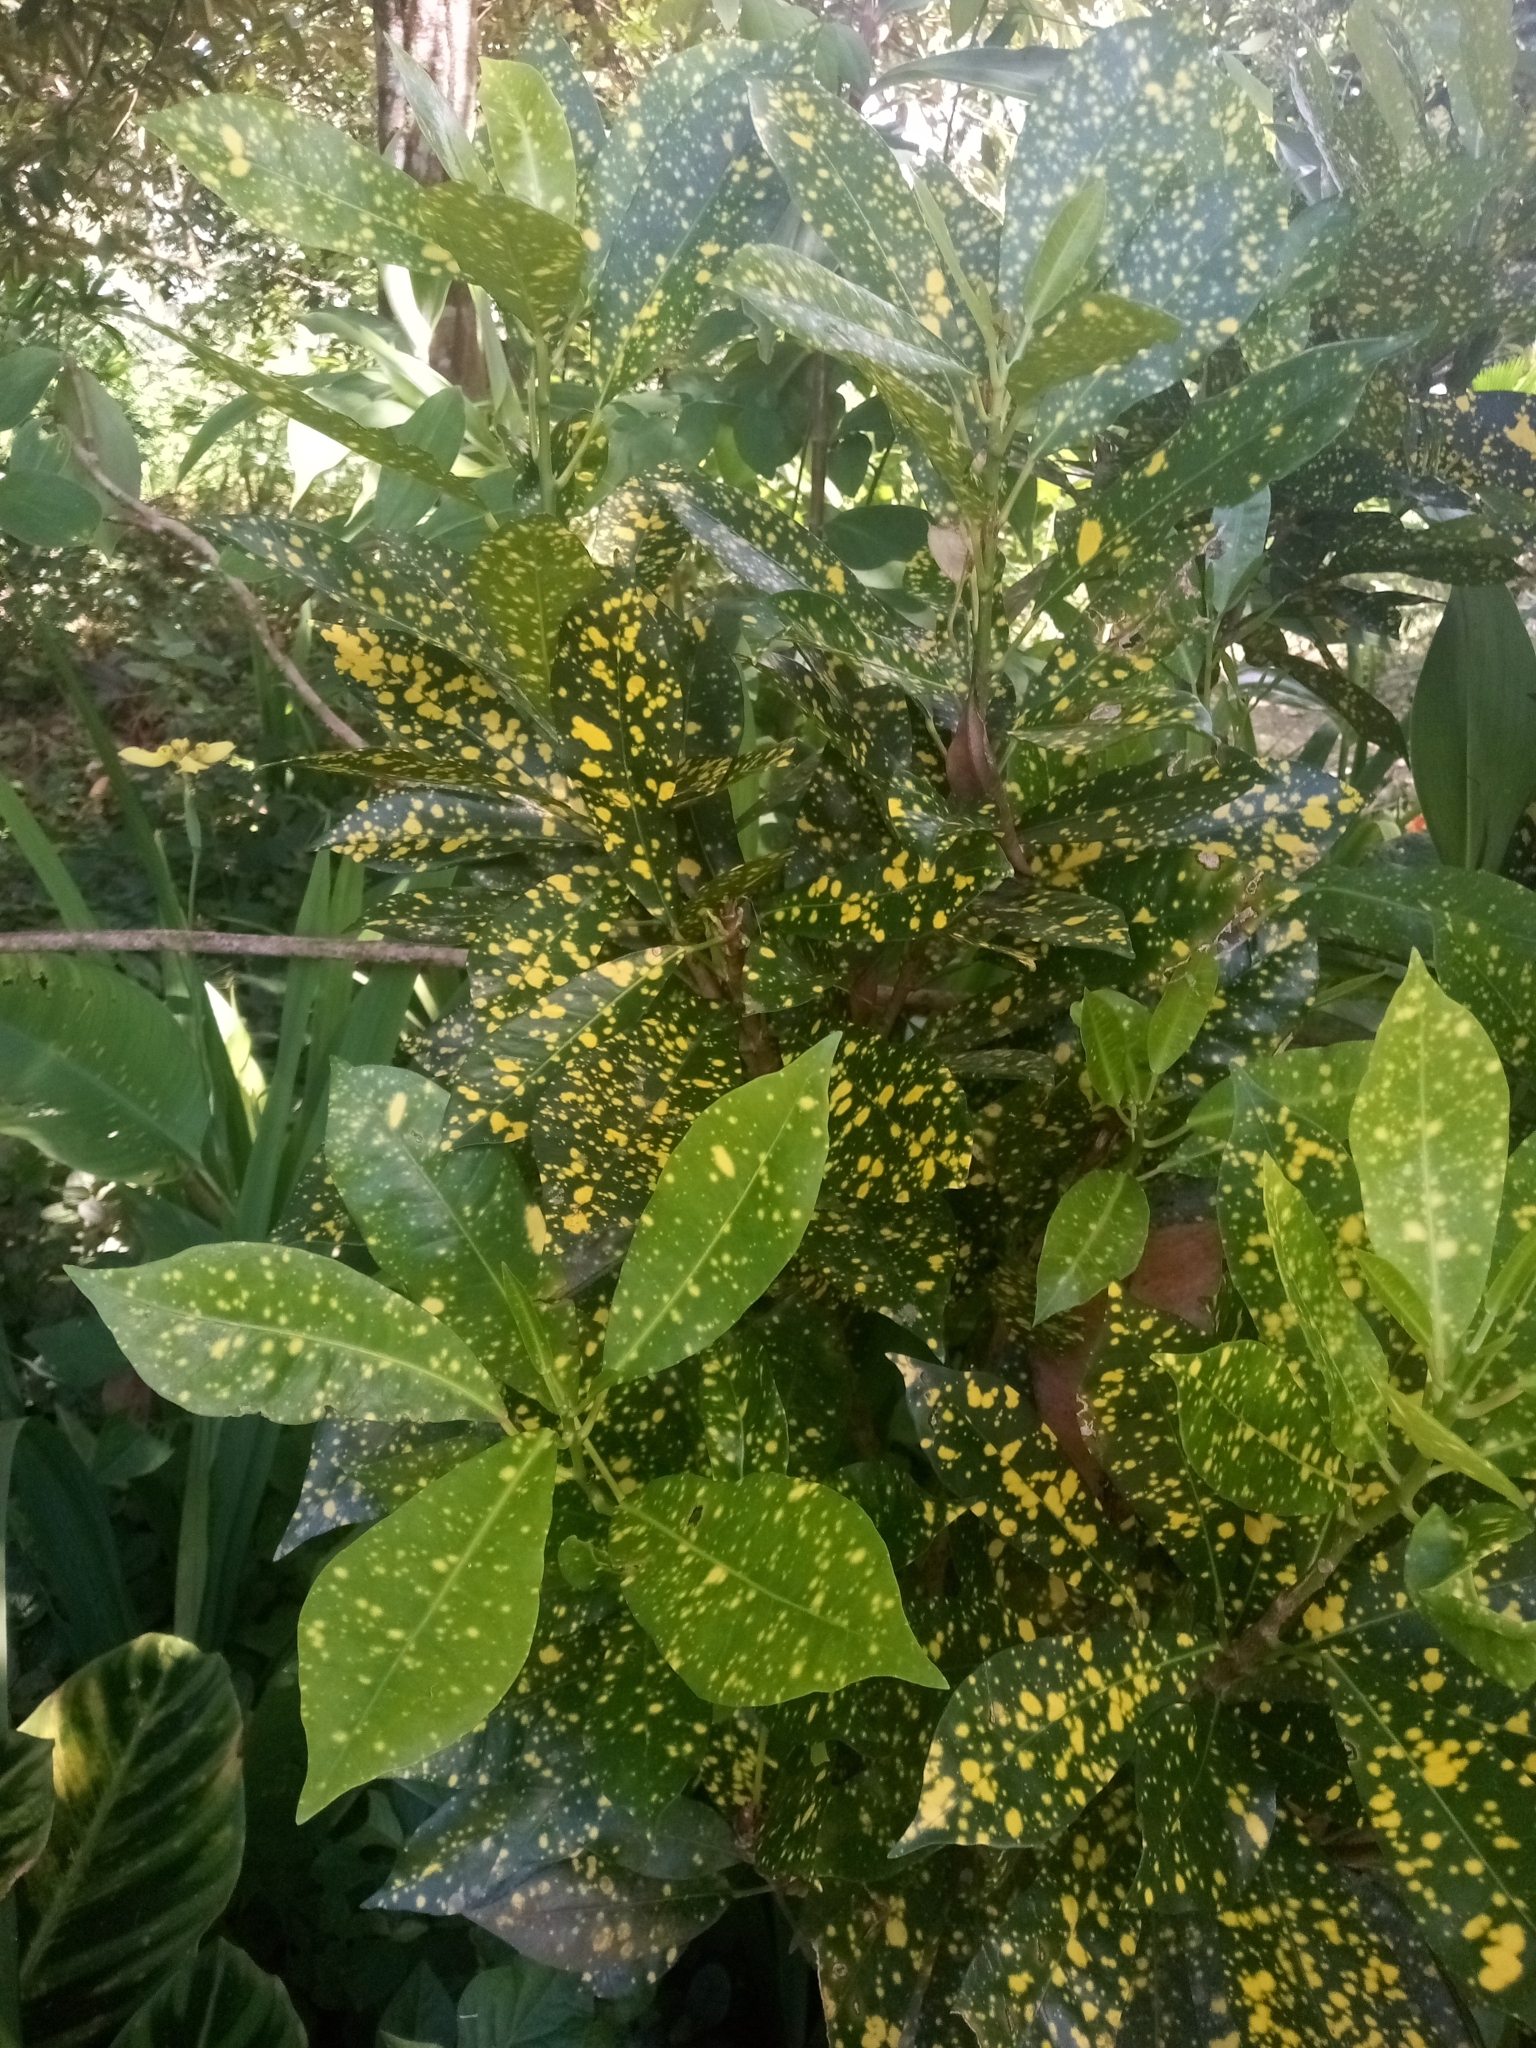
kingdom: Plantae
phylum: Tracheophyta
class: Magnoliopsida
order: Malpighiales
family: Euphorbiaceae
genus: Codiaeum
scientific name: Codiaeum variegatum
